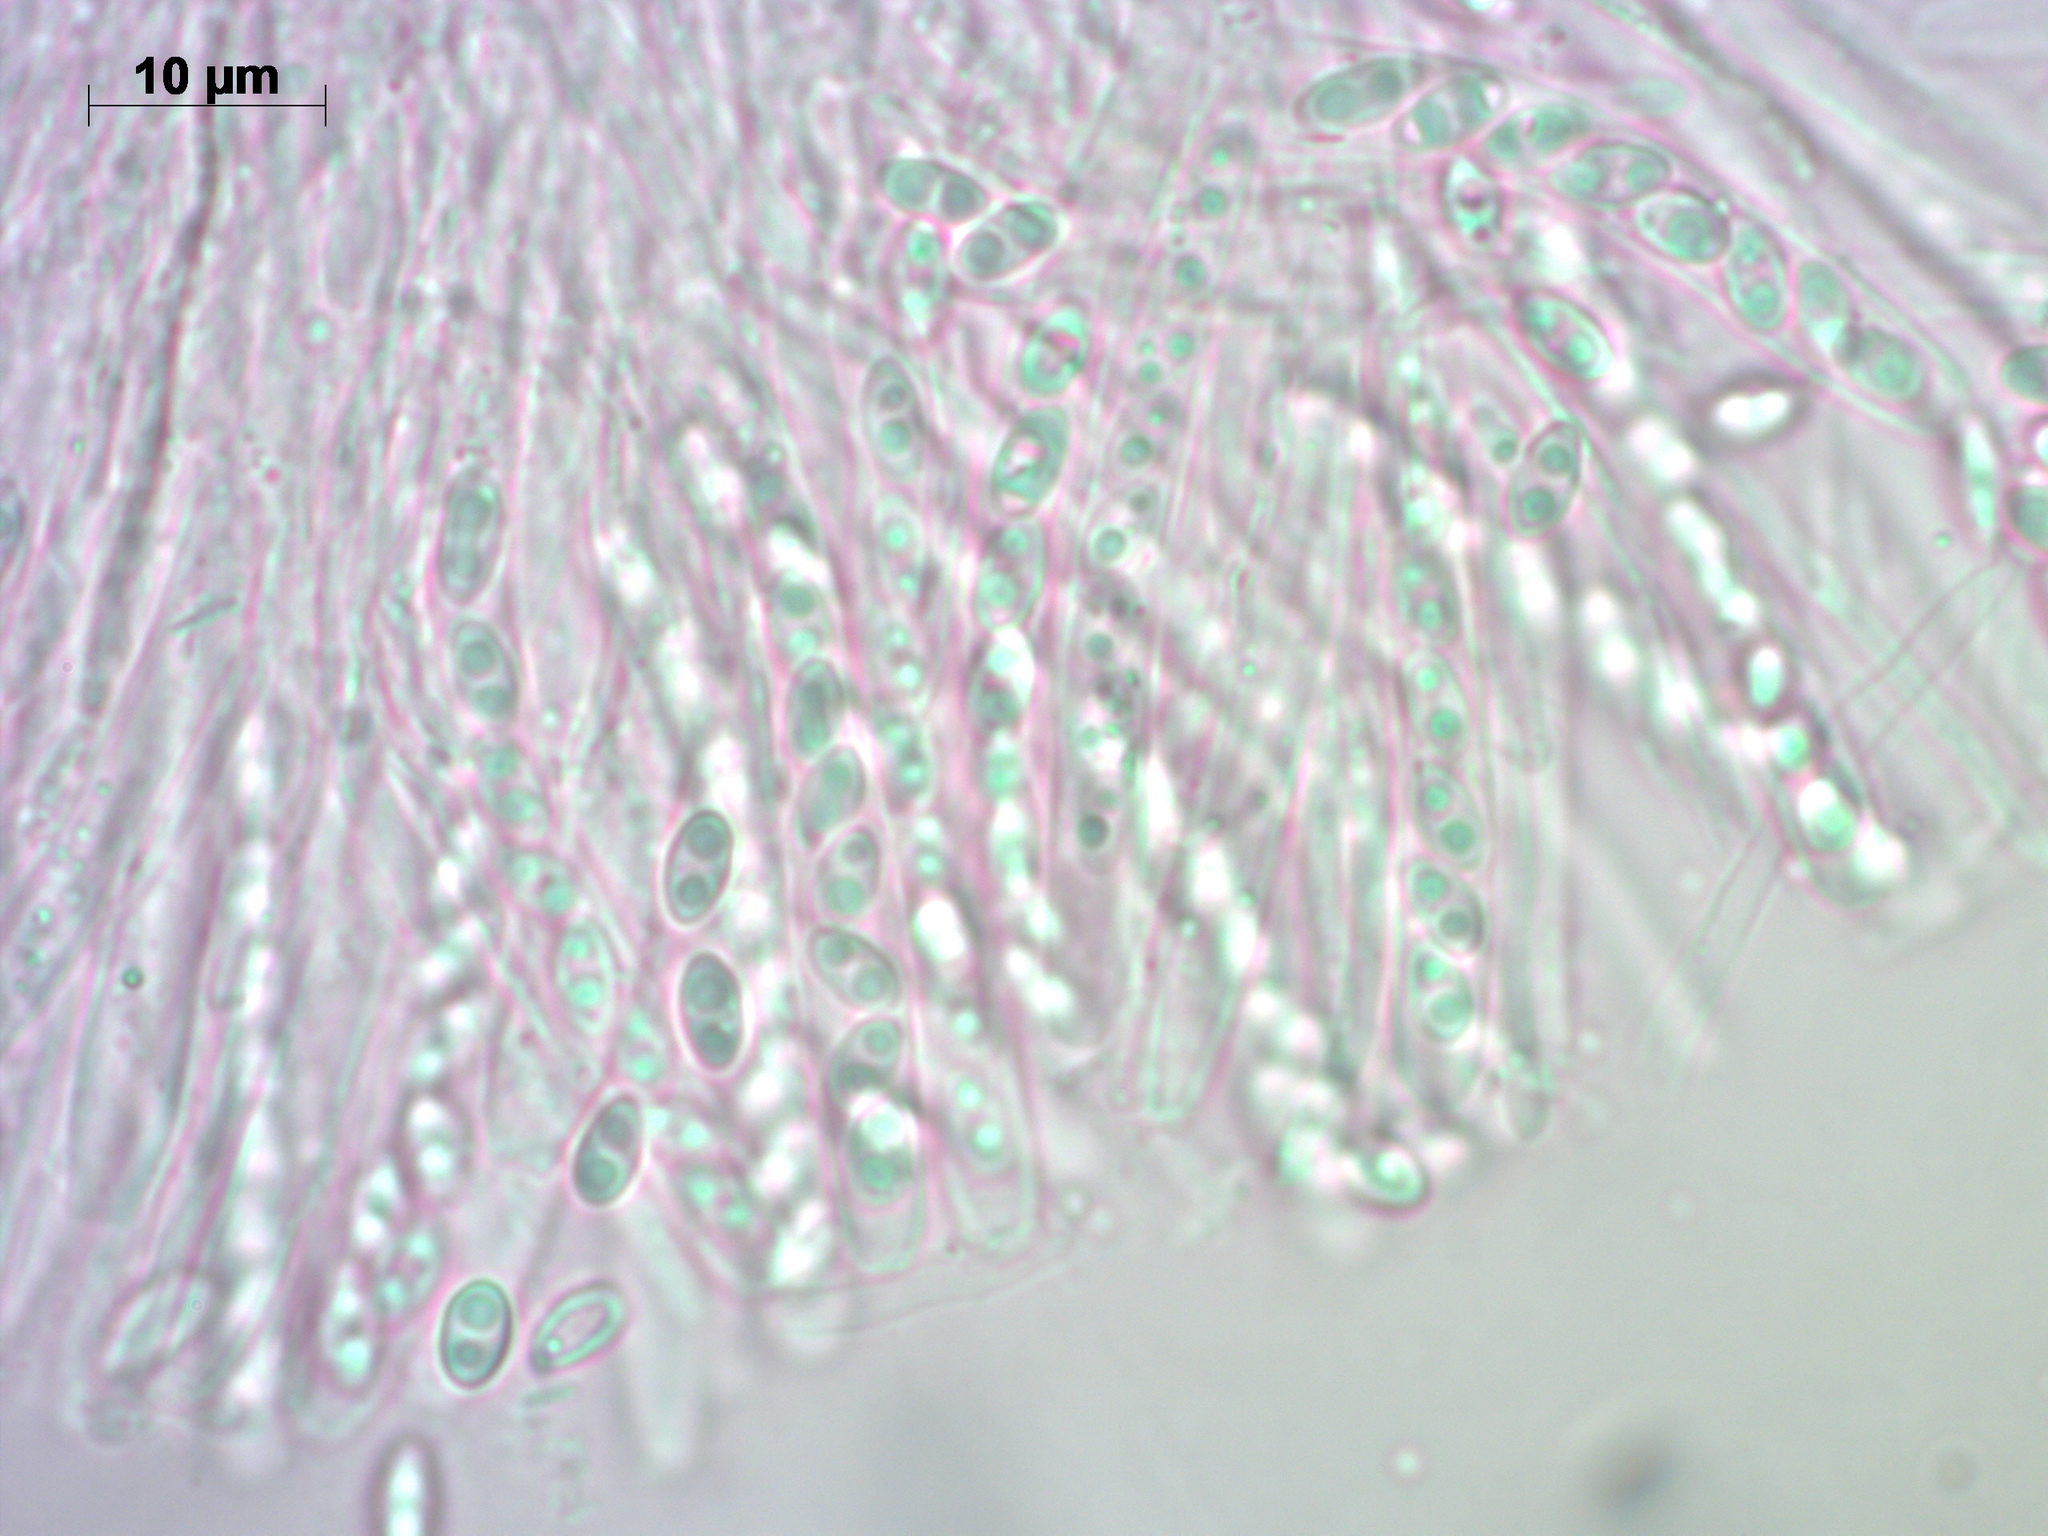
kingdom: Fungi
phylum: Ascomycota
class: Leotiomycetes
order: Helotiales
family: Bryoglossaceae
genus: Neocudoniella
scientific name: Neocudoniella albiceps
